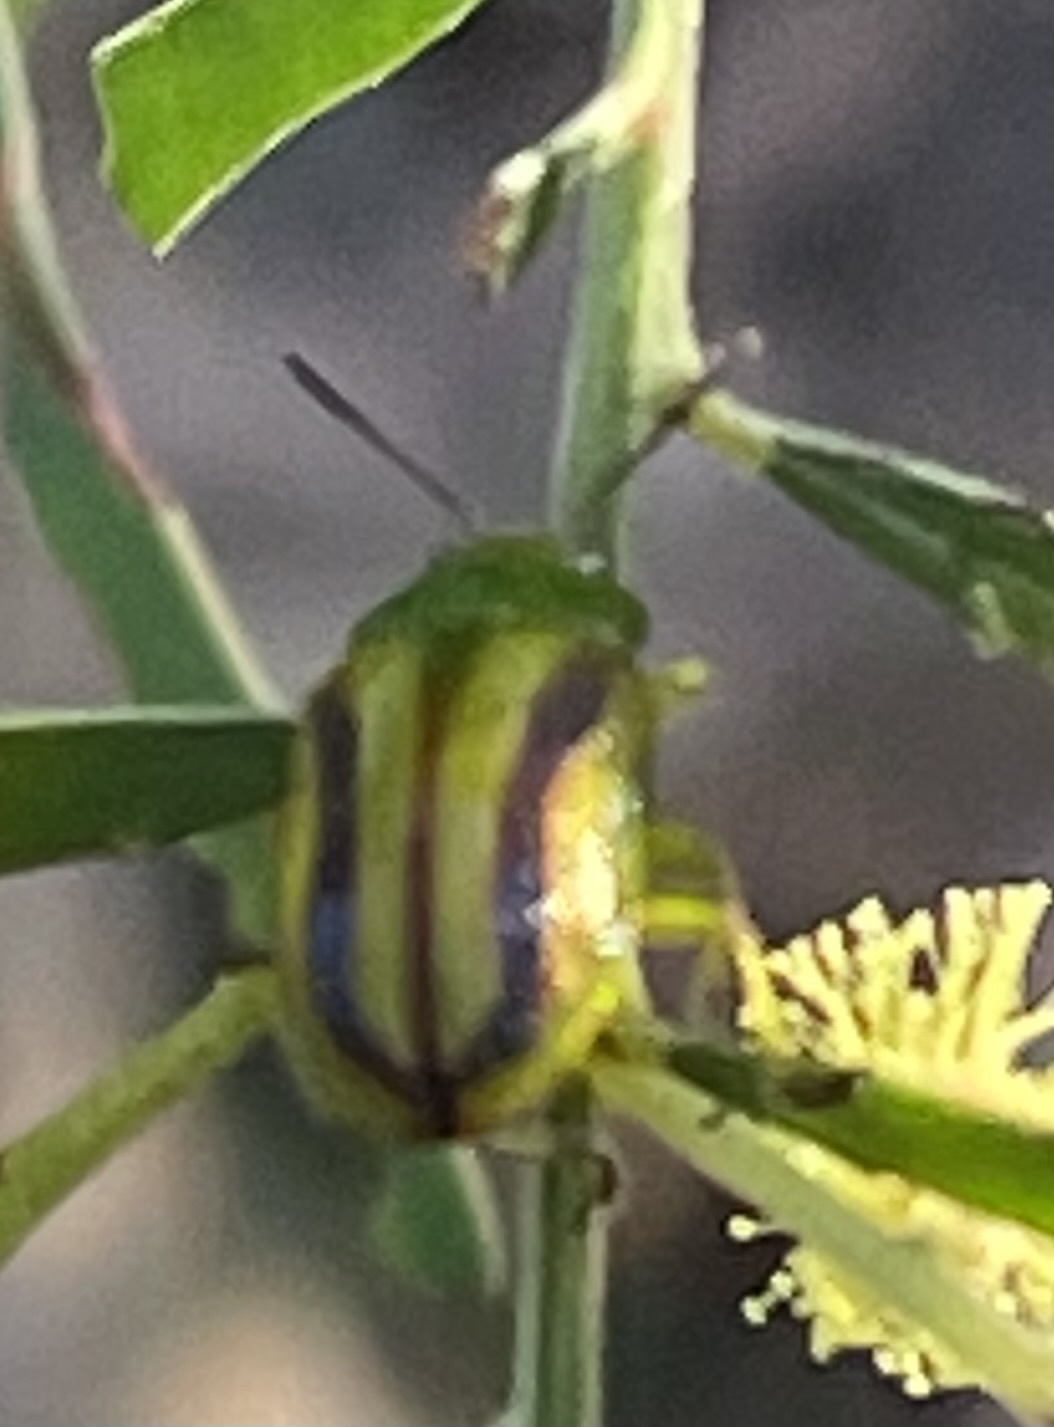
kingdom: Animalia
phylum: Arthropoda
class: Insecta
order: Coleoptera
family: Chrysomelidae
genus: Calomela
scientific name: Calomela
